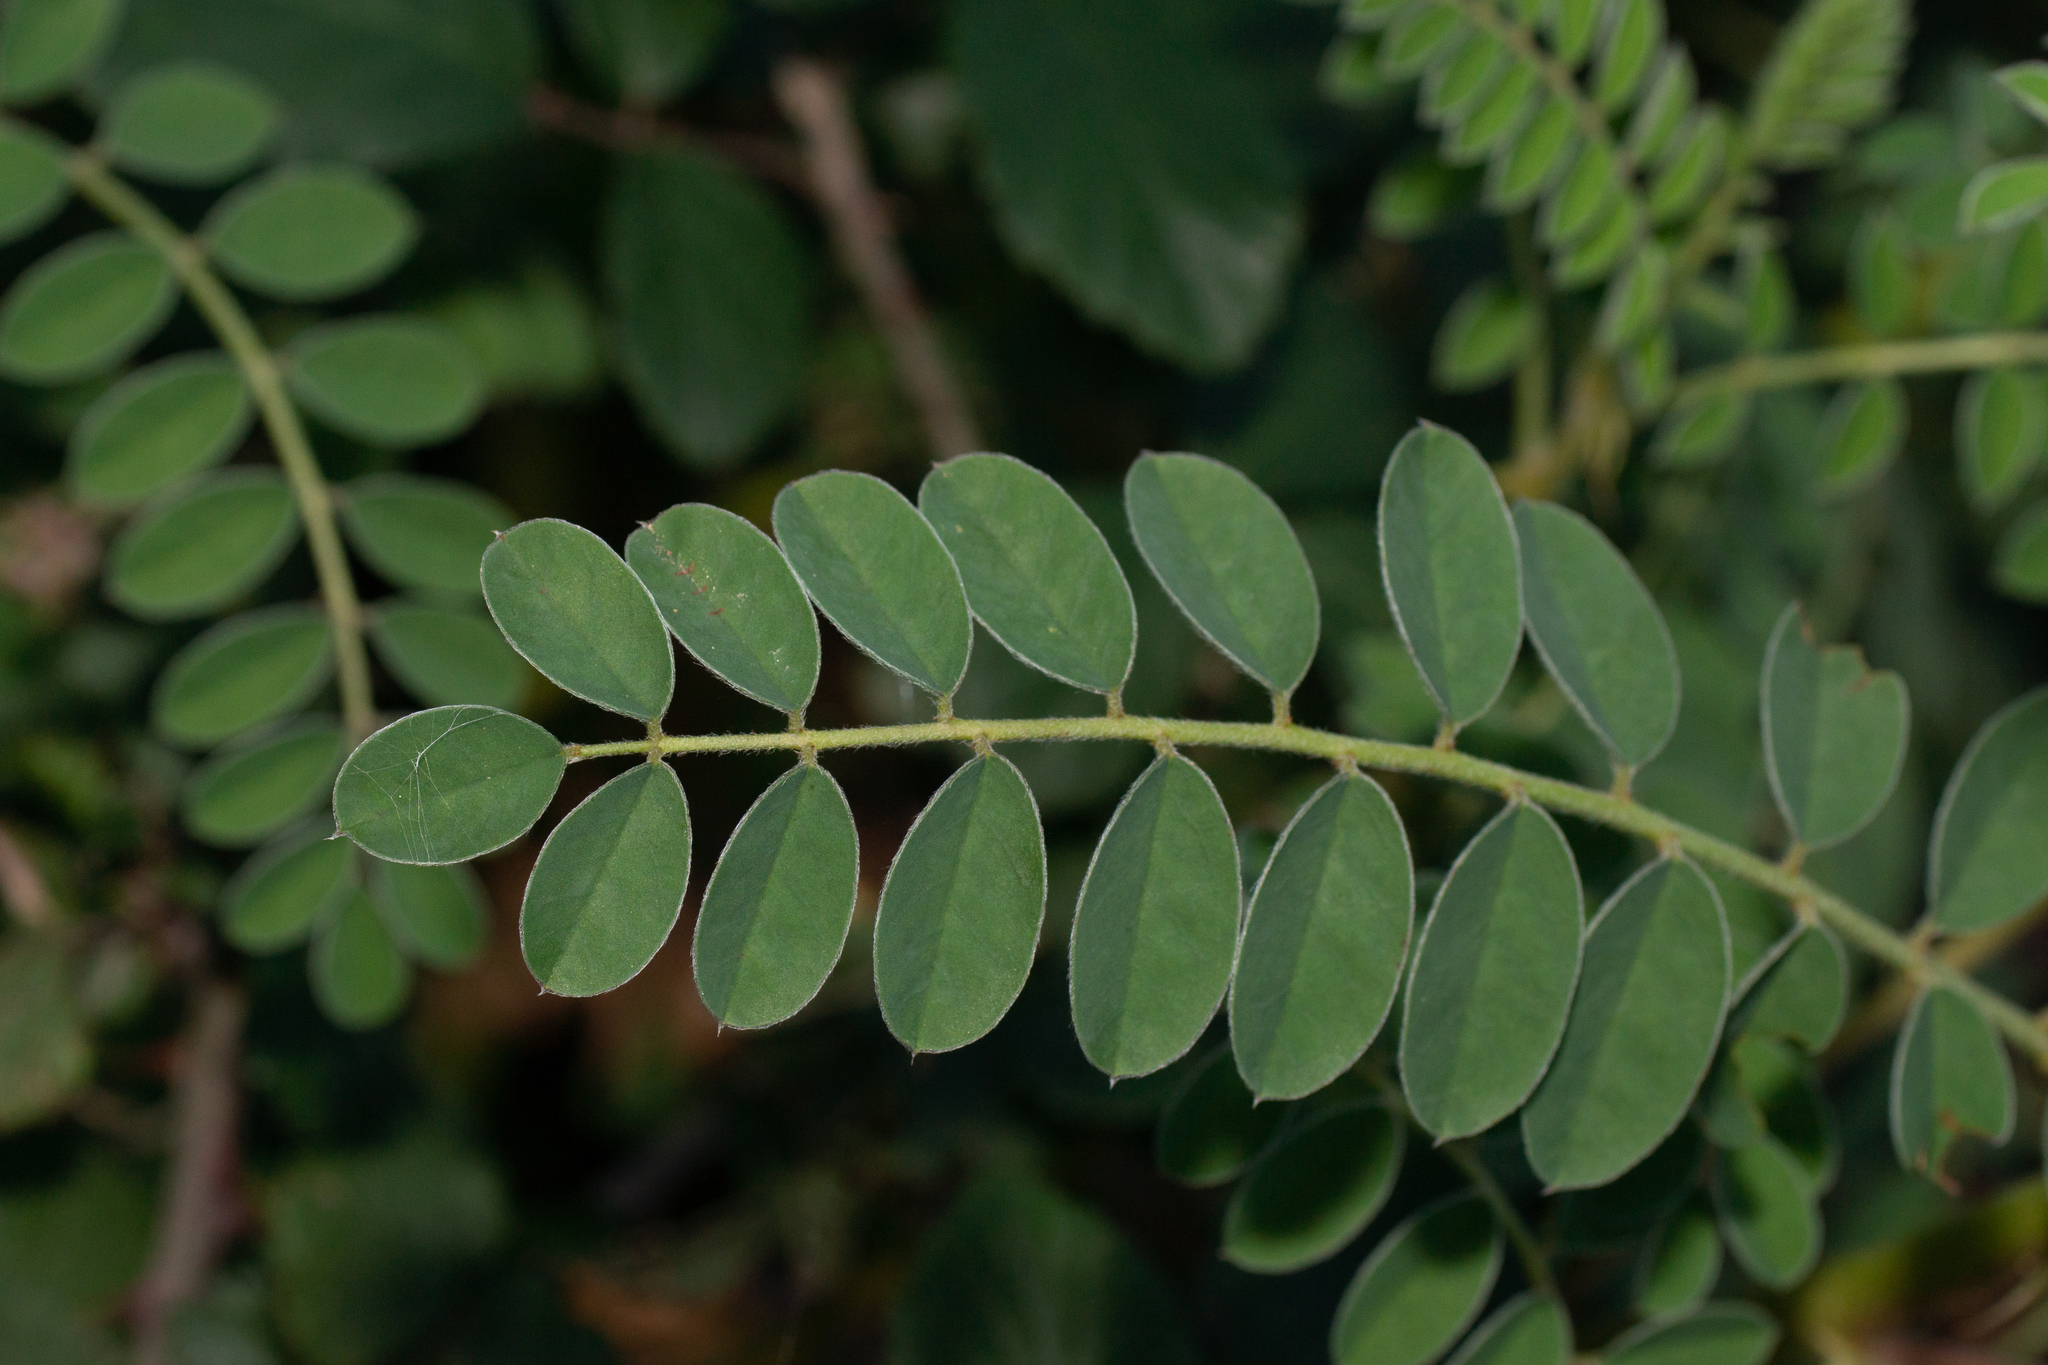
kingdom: Plantae
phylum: Tracheophyta
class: Magnoliopsida
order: Fabales
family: Fabaceae
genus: Erophaca
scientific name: Erophaca baetica
